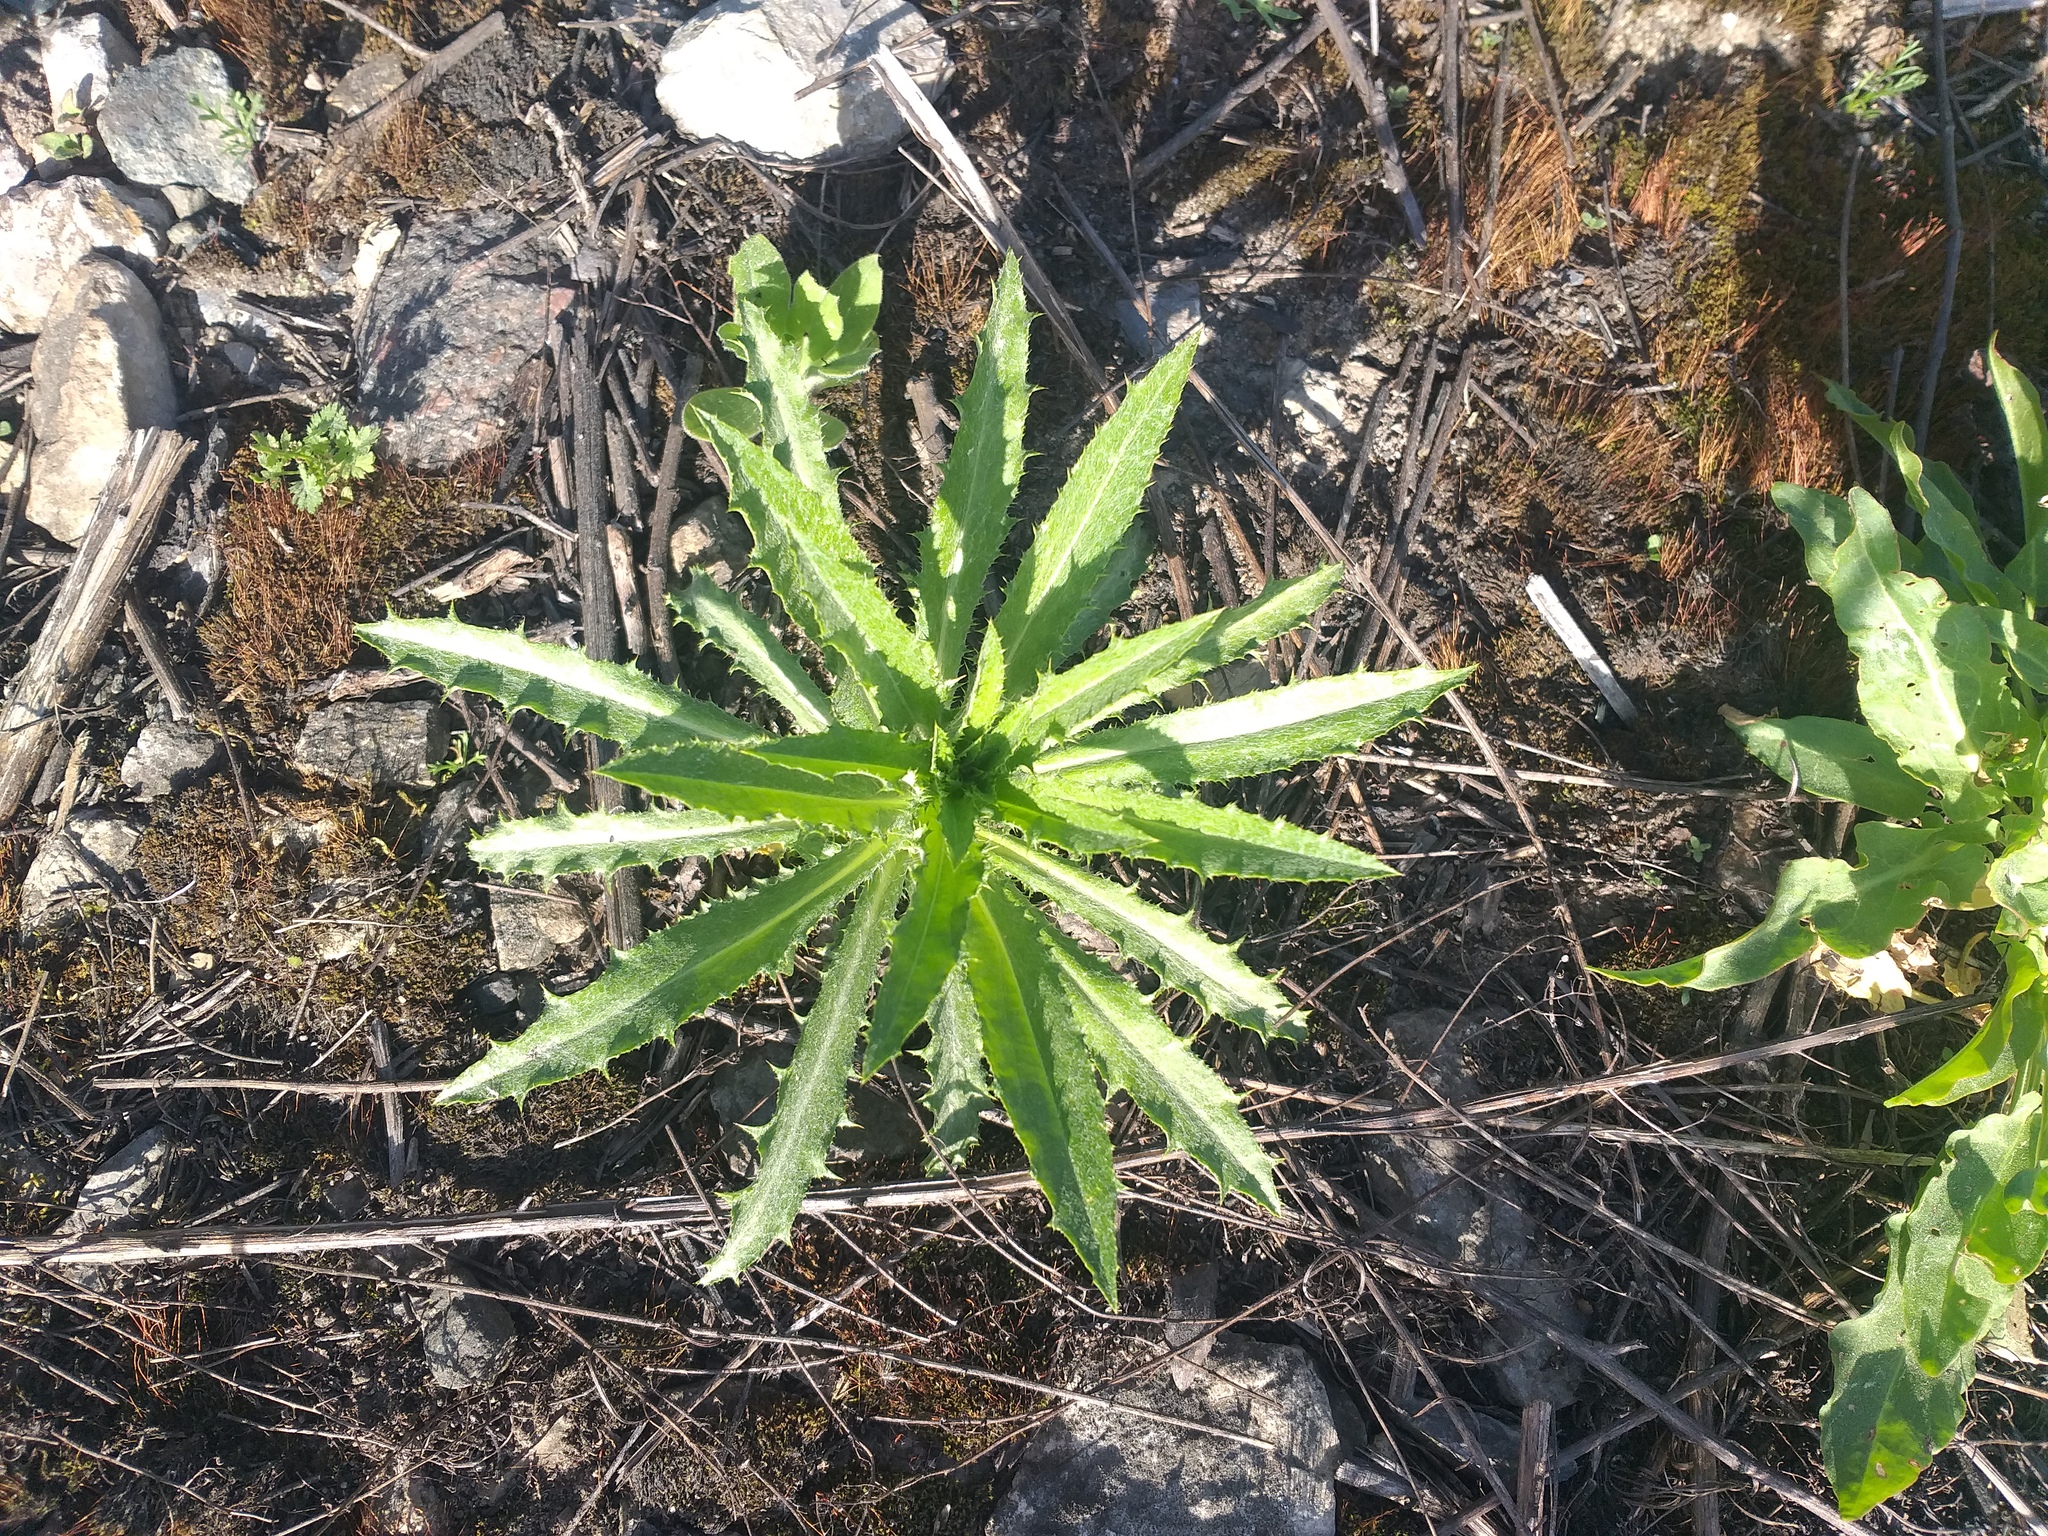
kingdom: Plantae
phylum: Tracheophyta
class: Magnoliopsida
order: Asterales
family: Asteraceae
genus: Carlina
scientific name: Carlina biebersteinii
